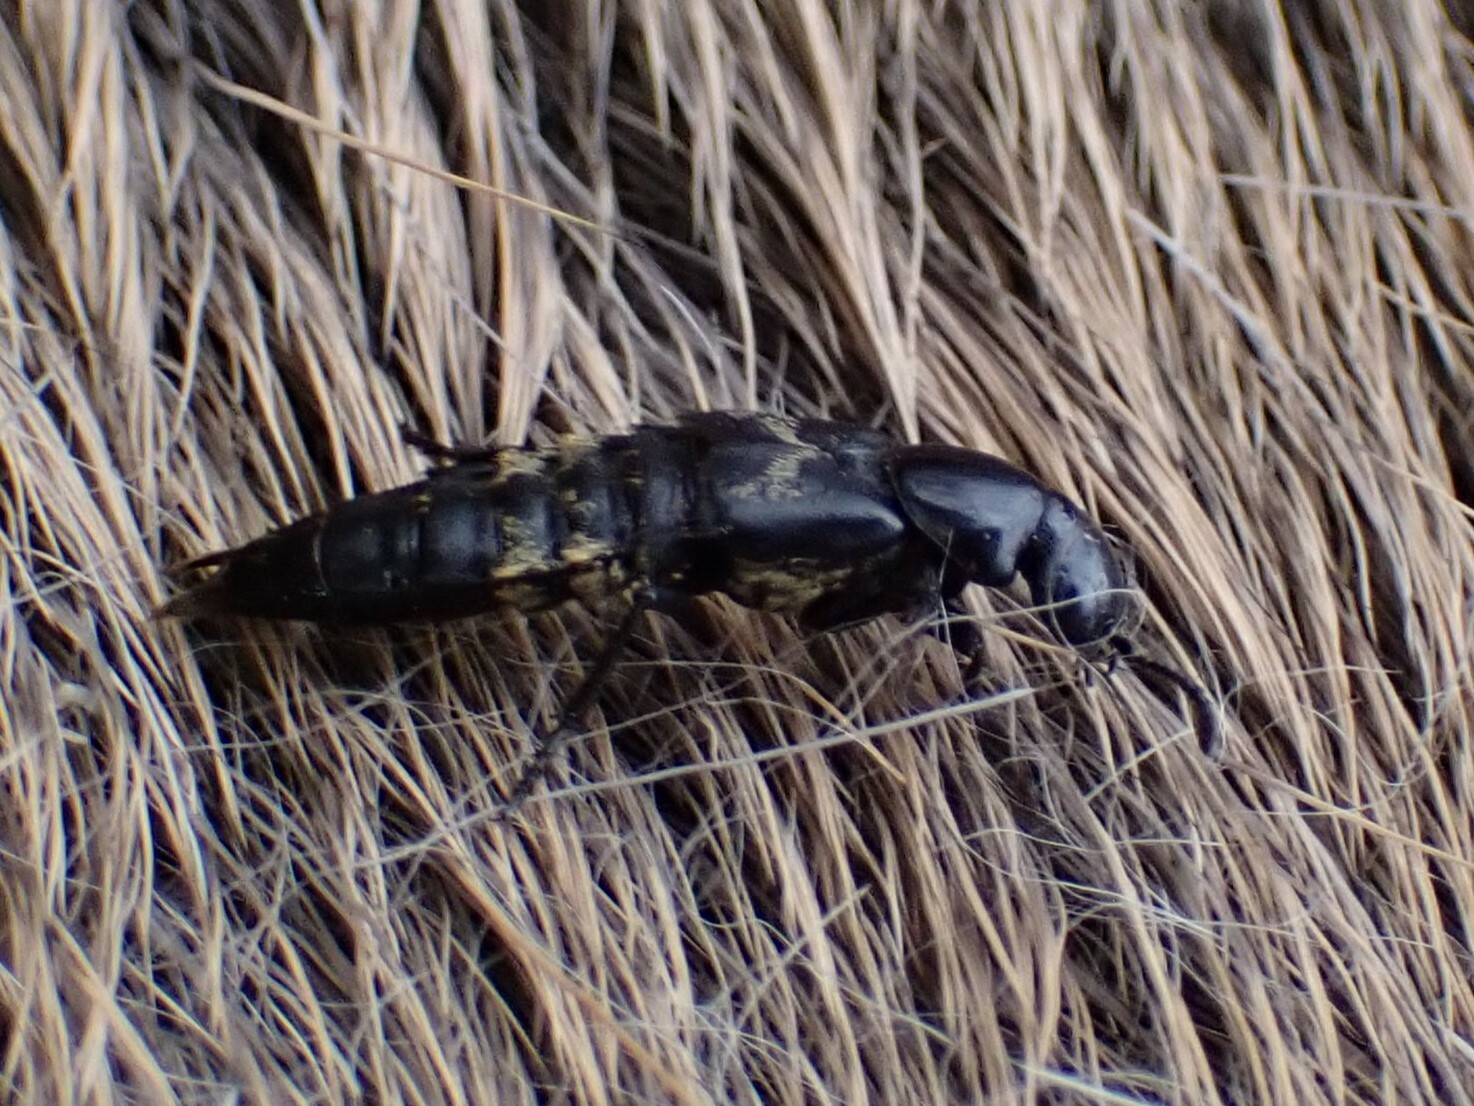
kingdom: Animalia
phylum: Arthropoda
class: Insecta
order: Coleoptera
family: Staphylinidae
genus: Creophilus
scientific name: Creophilus maxillosus
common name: Hairy rove beetle
